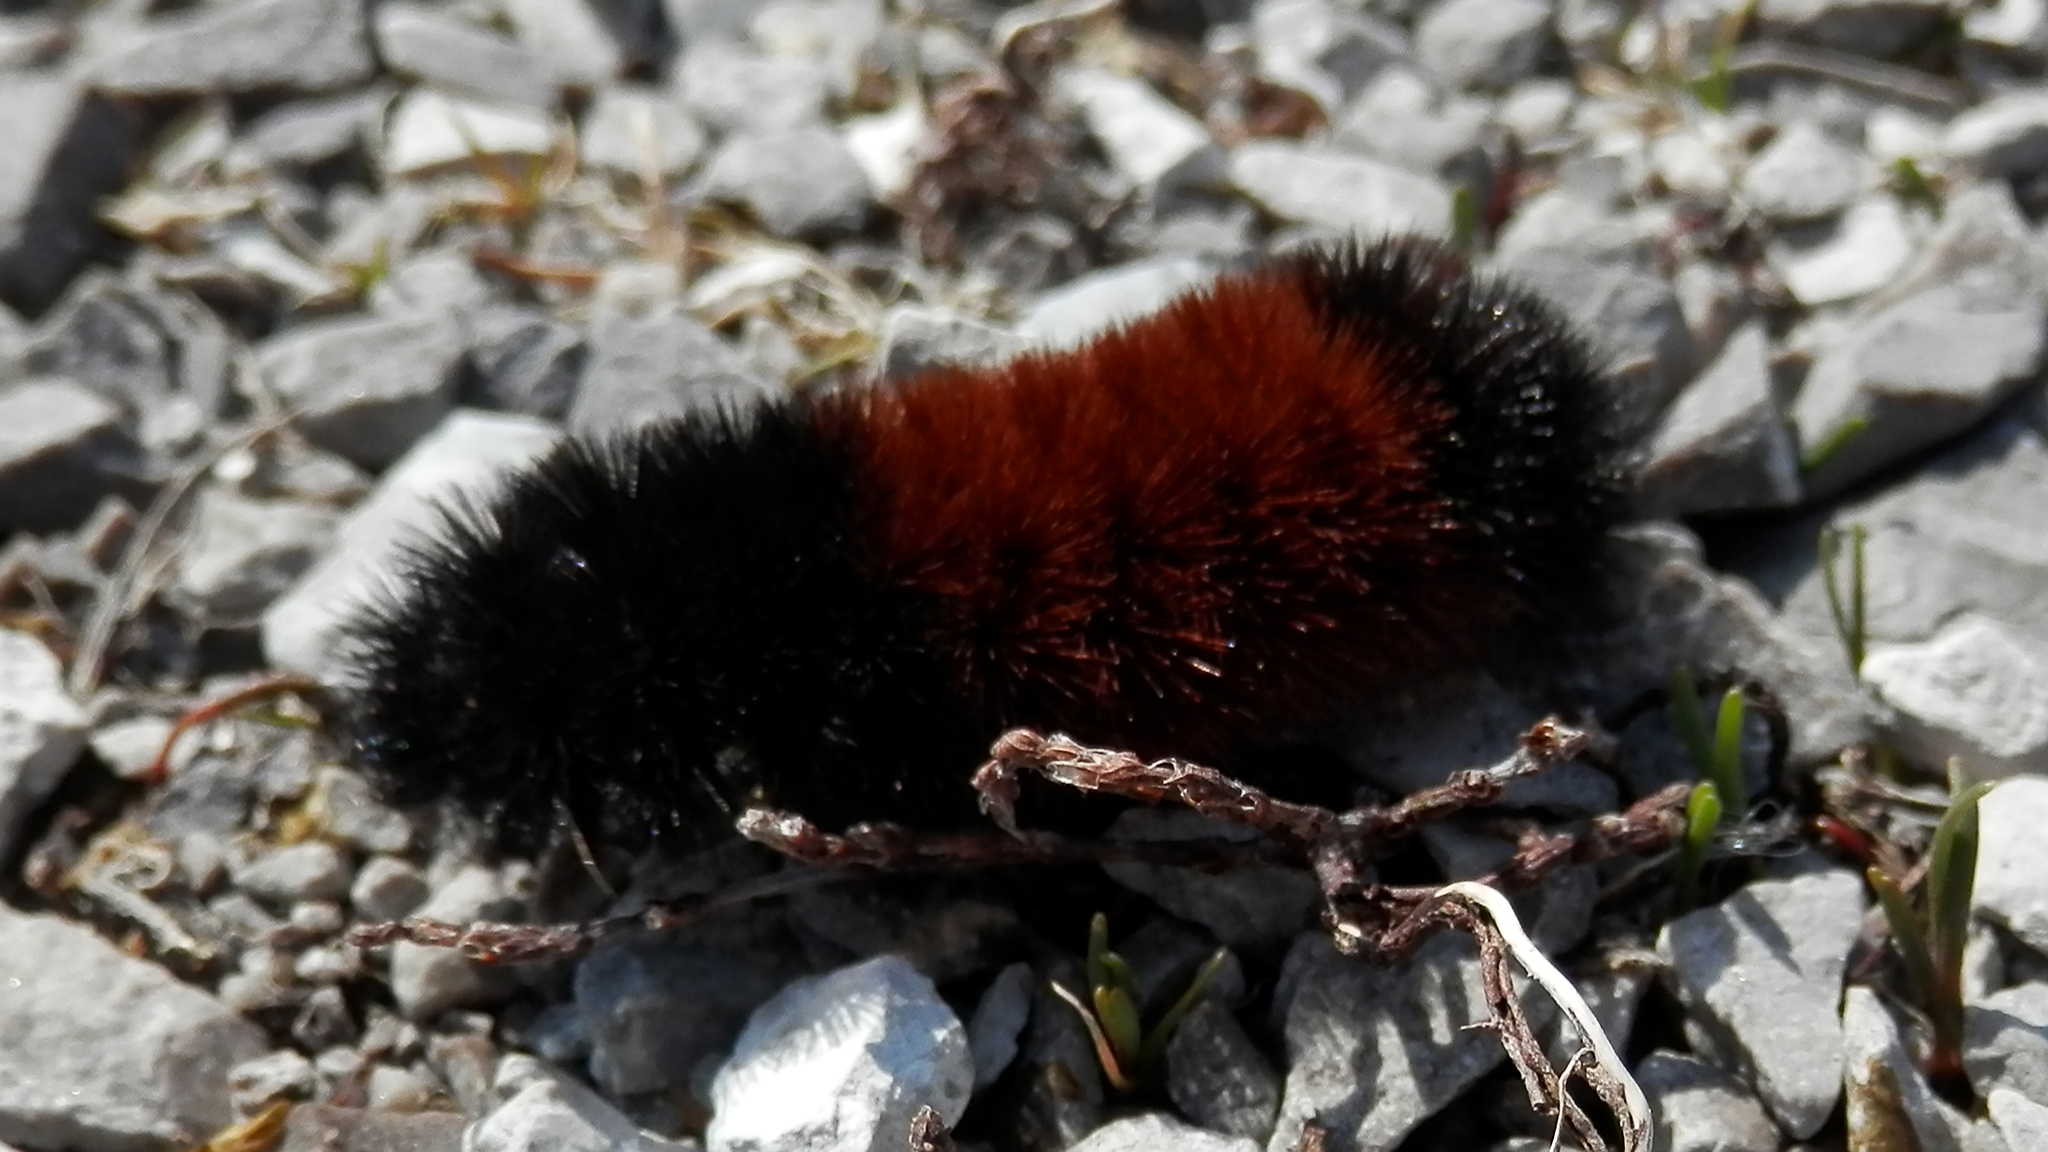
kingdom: Animalia
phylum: Arthropoda
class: Insecta
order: Lepidoptera
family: Erebidae
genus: Pyrrharctia
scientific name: Pyrrharctia isabella
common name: Isabella tiger moth
